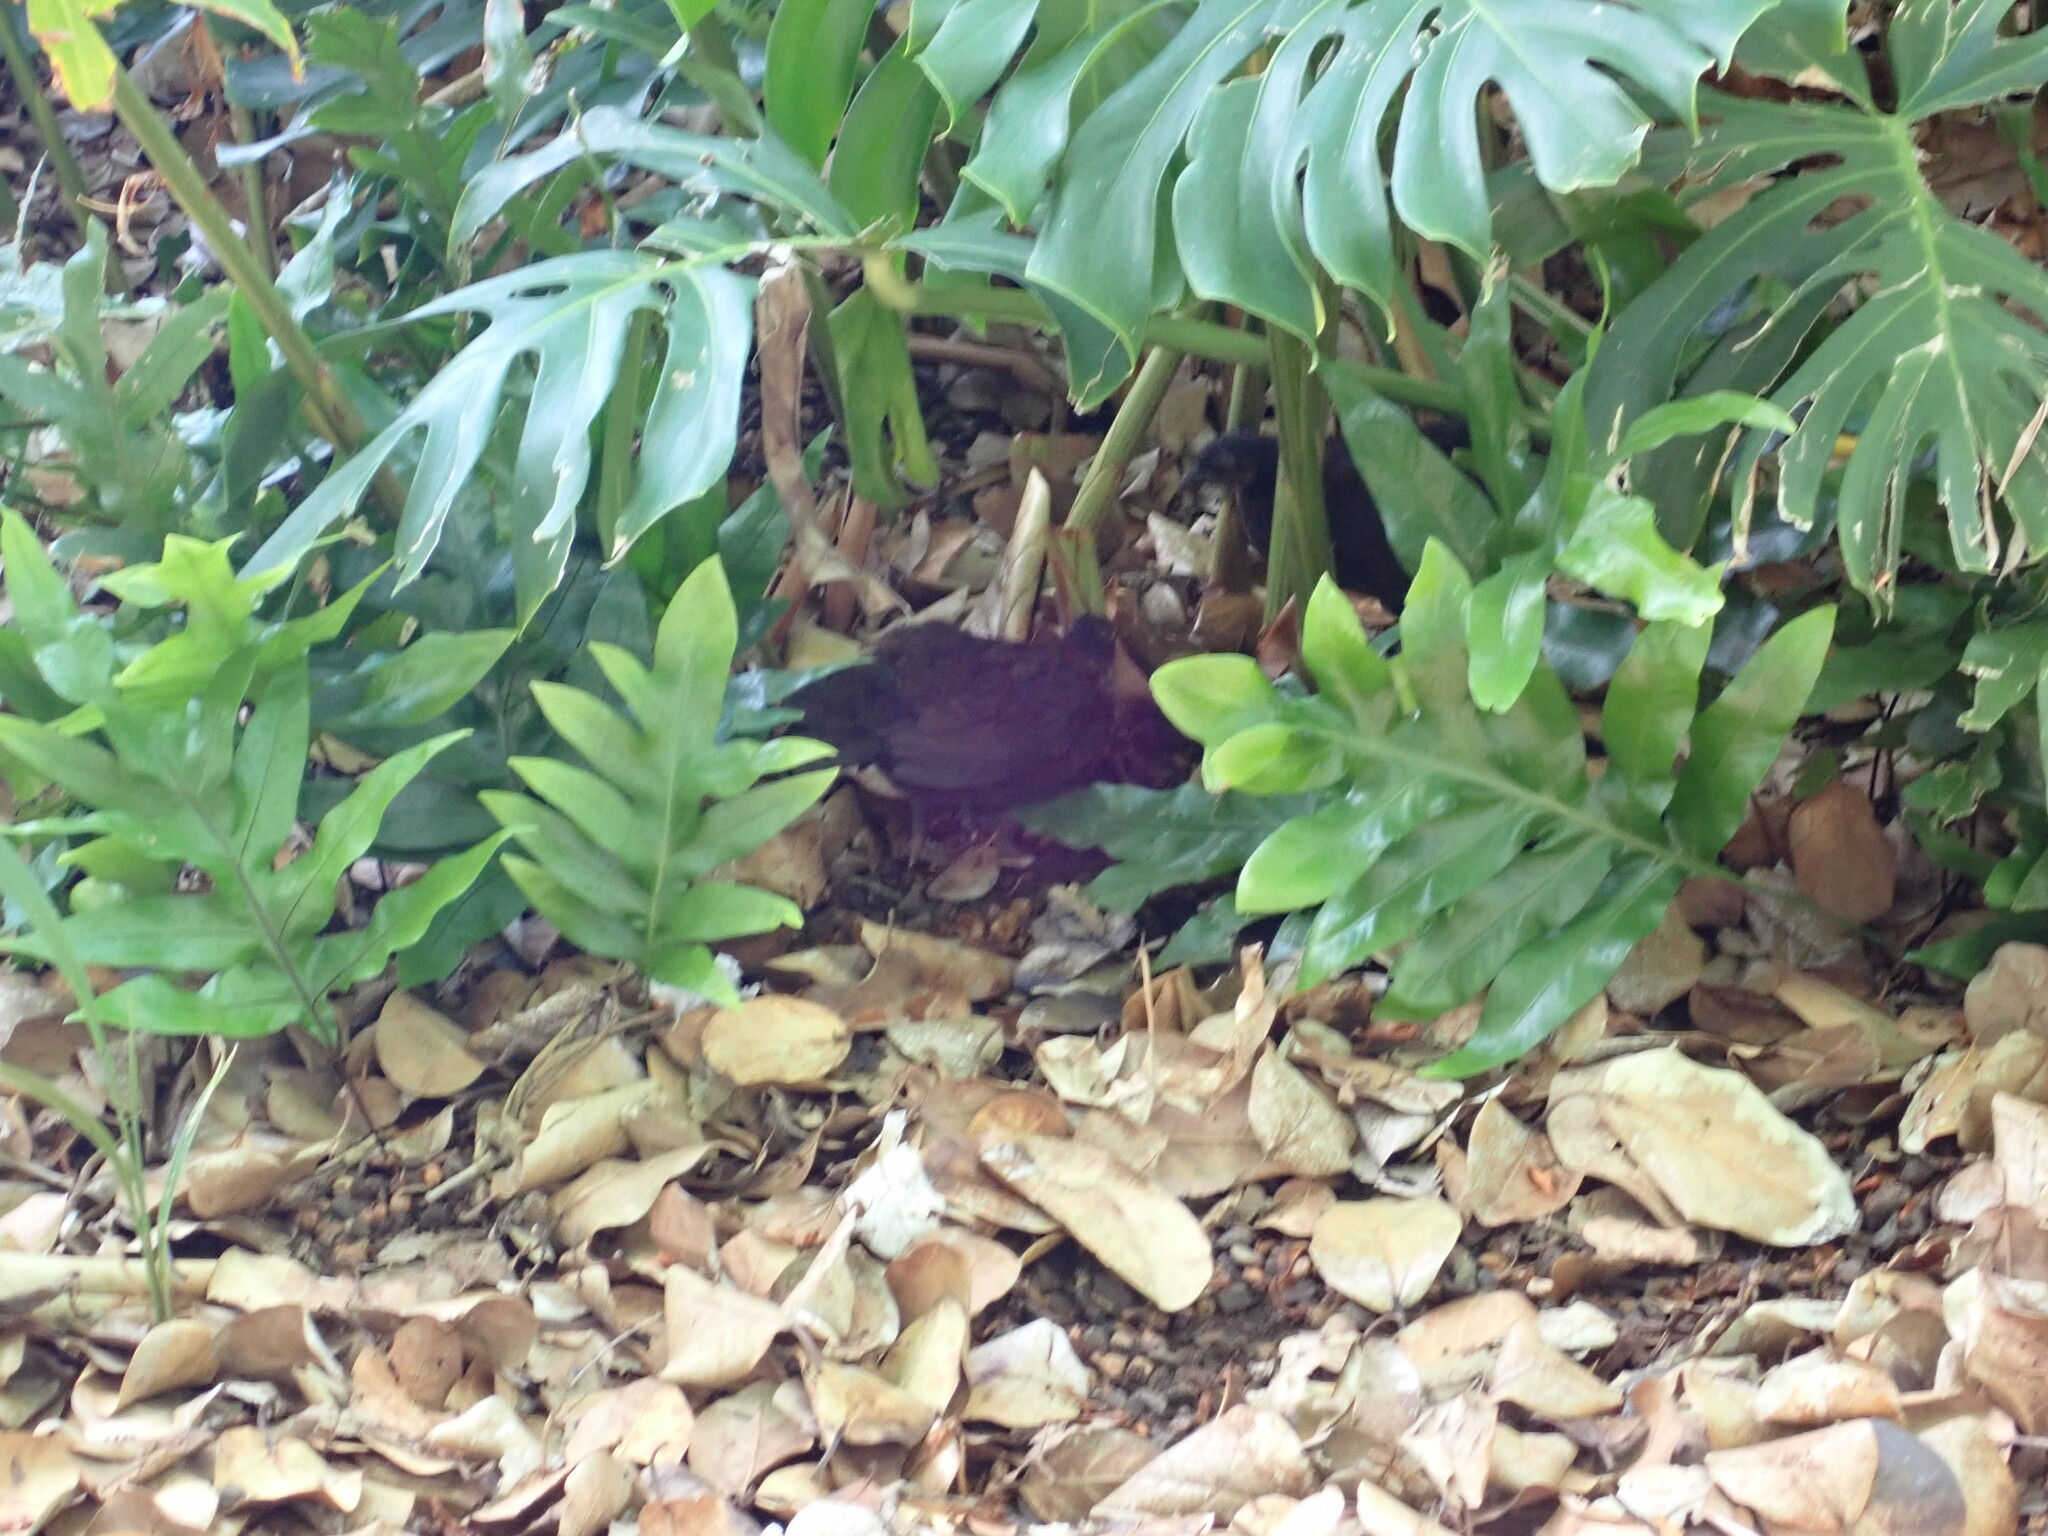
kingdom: Animalia
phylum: Chordata
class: Aves
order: Galliformes
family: Phasianidae
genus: Gallus
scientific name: Gallus gallus
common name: Red junglefowl
